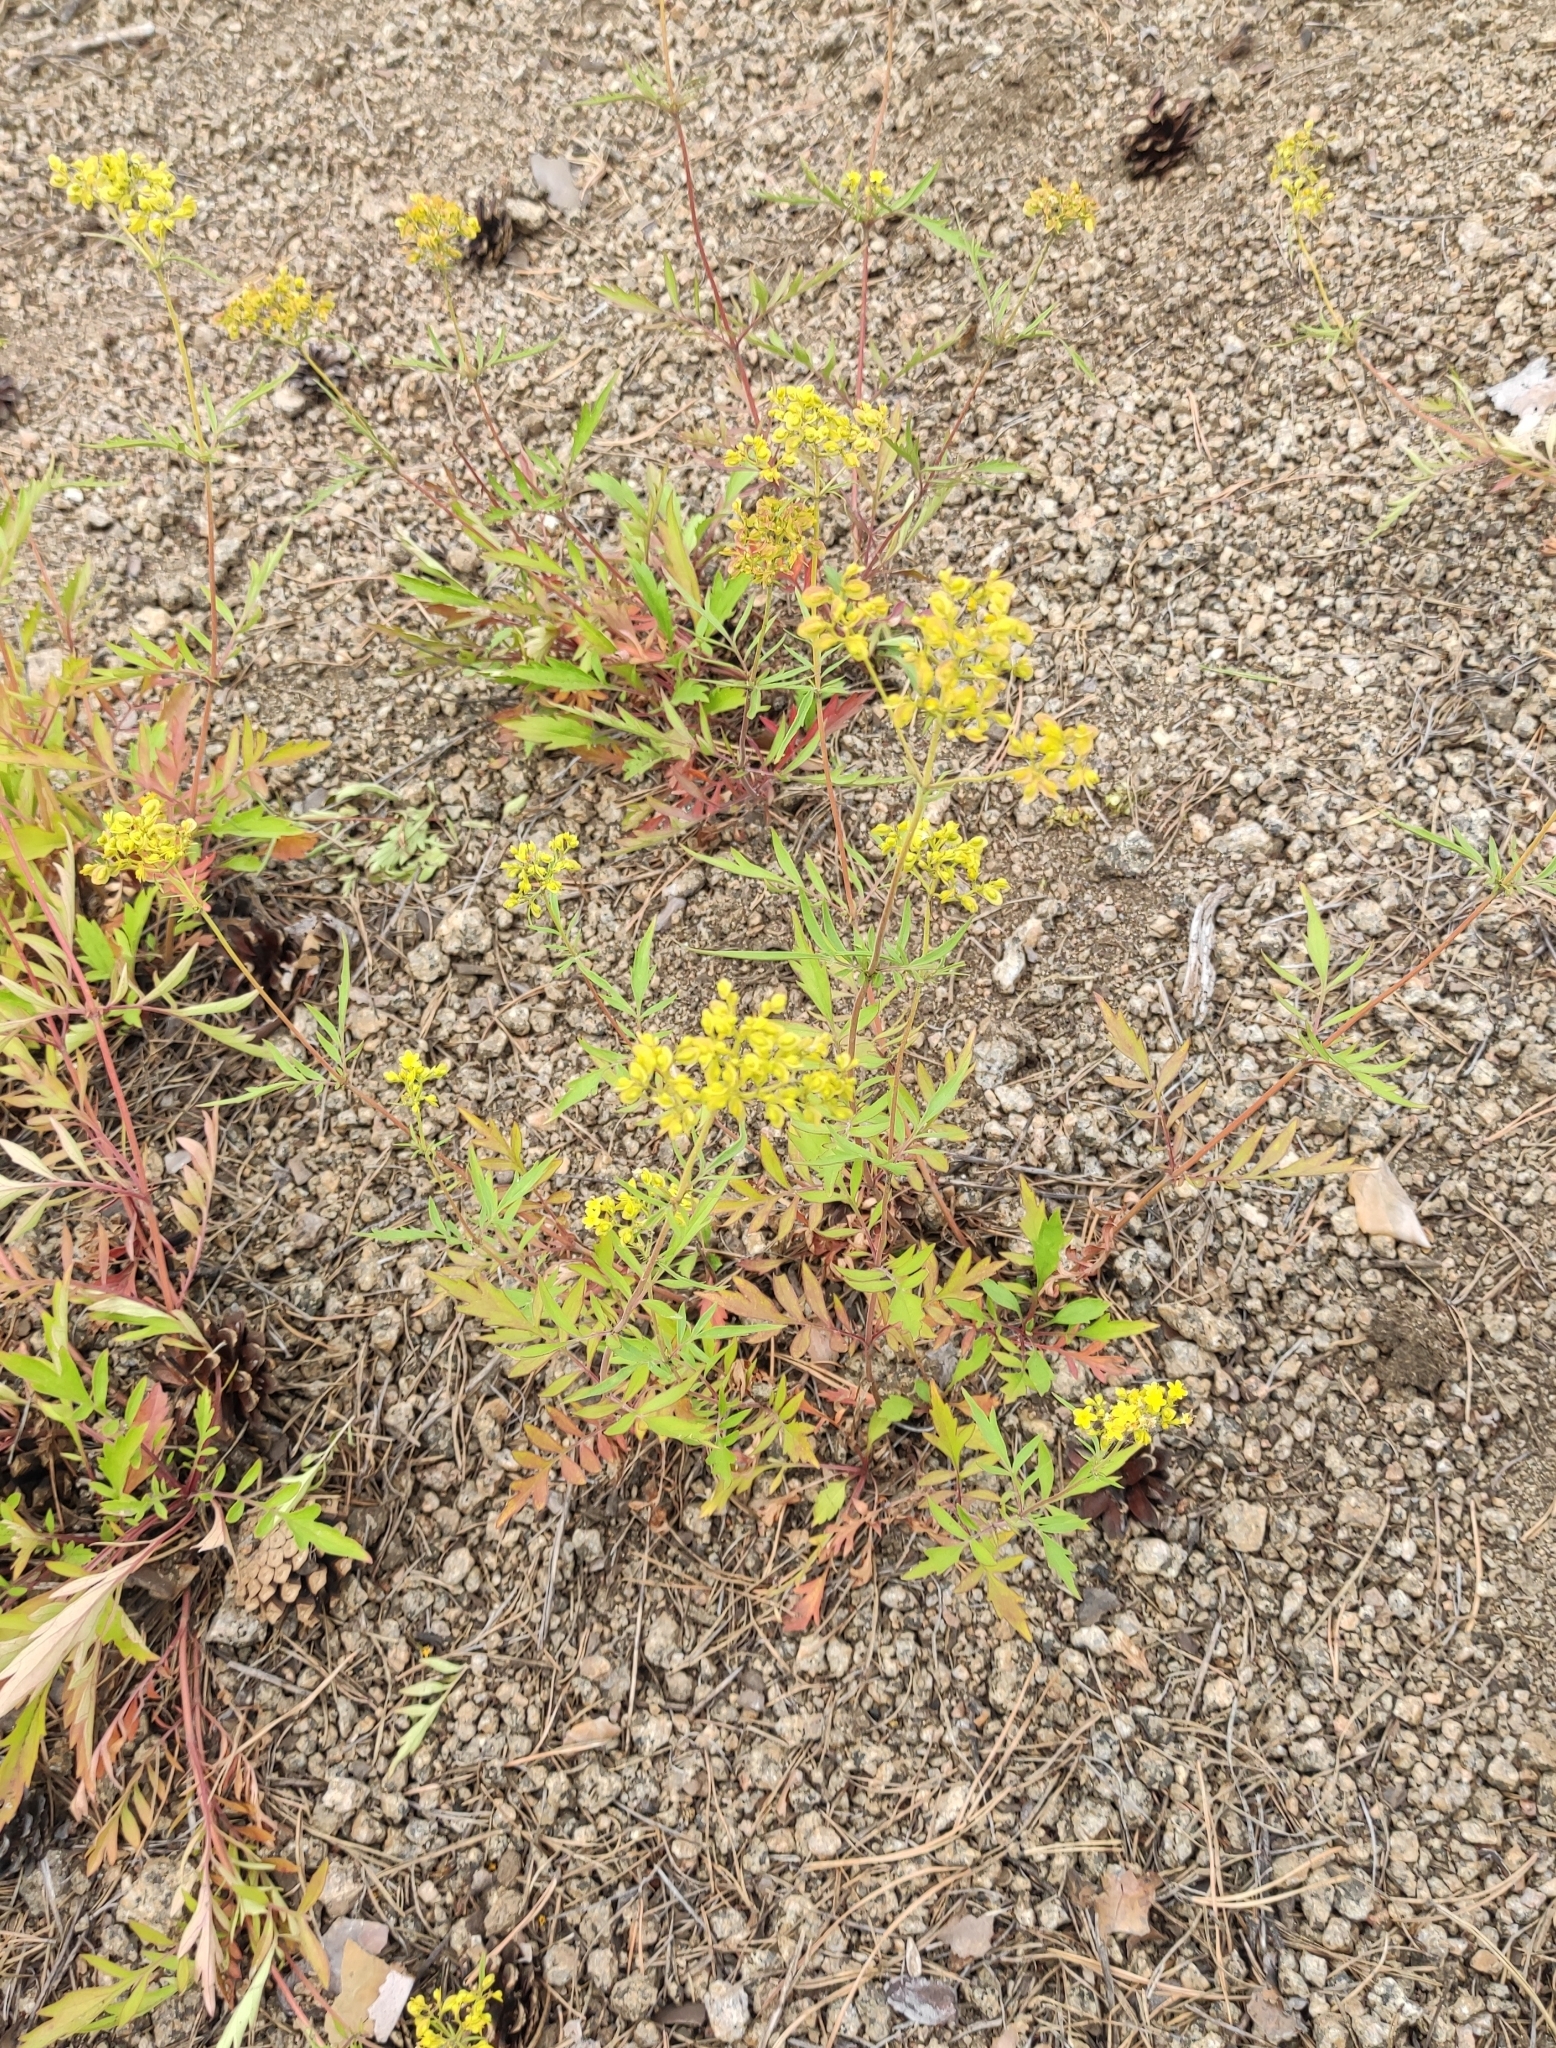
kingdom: Plantae
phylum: Tracheophyta
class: Magnoliopsida
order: Dipsacales
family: Caprifoliaceae
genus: Patrinia
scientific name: Patrinia rupestris
